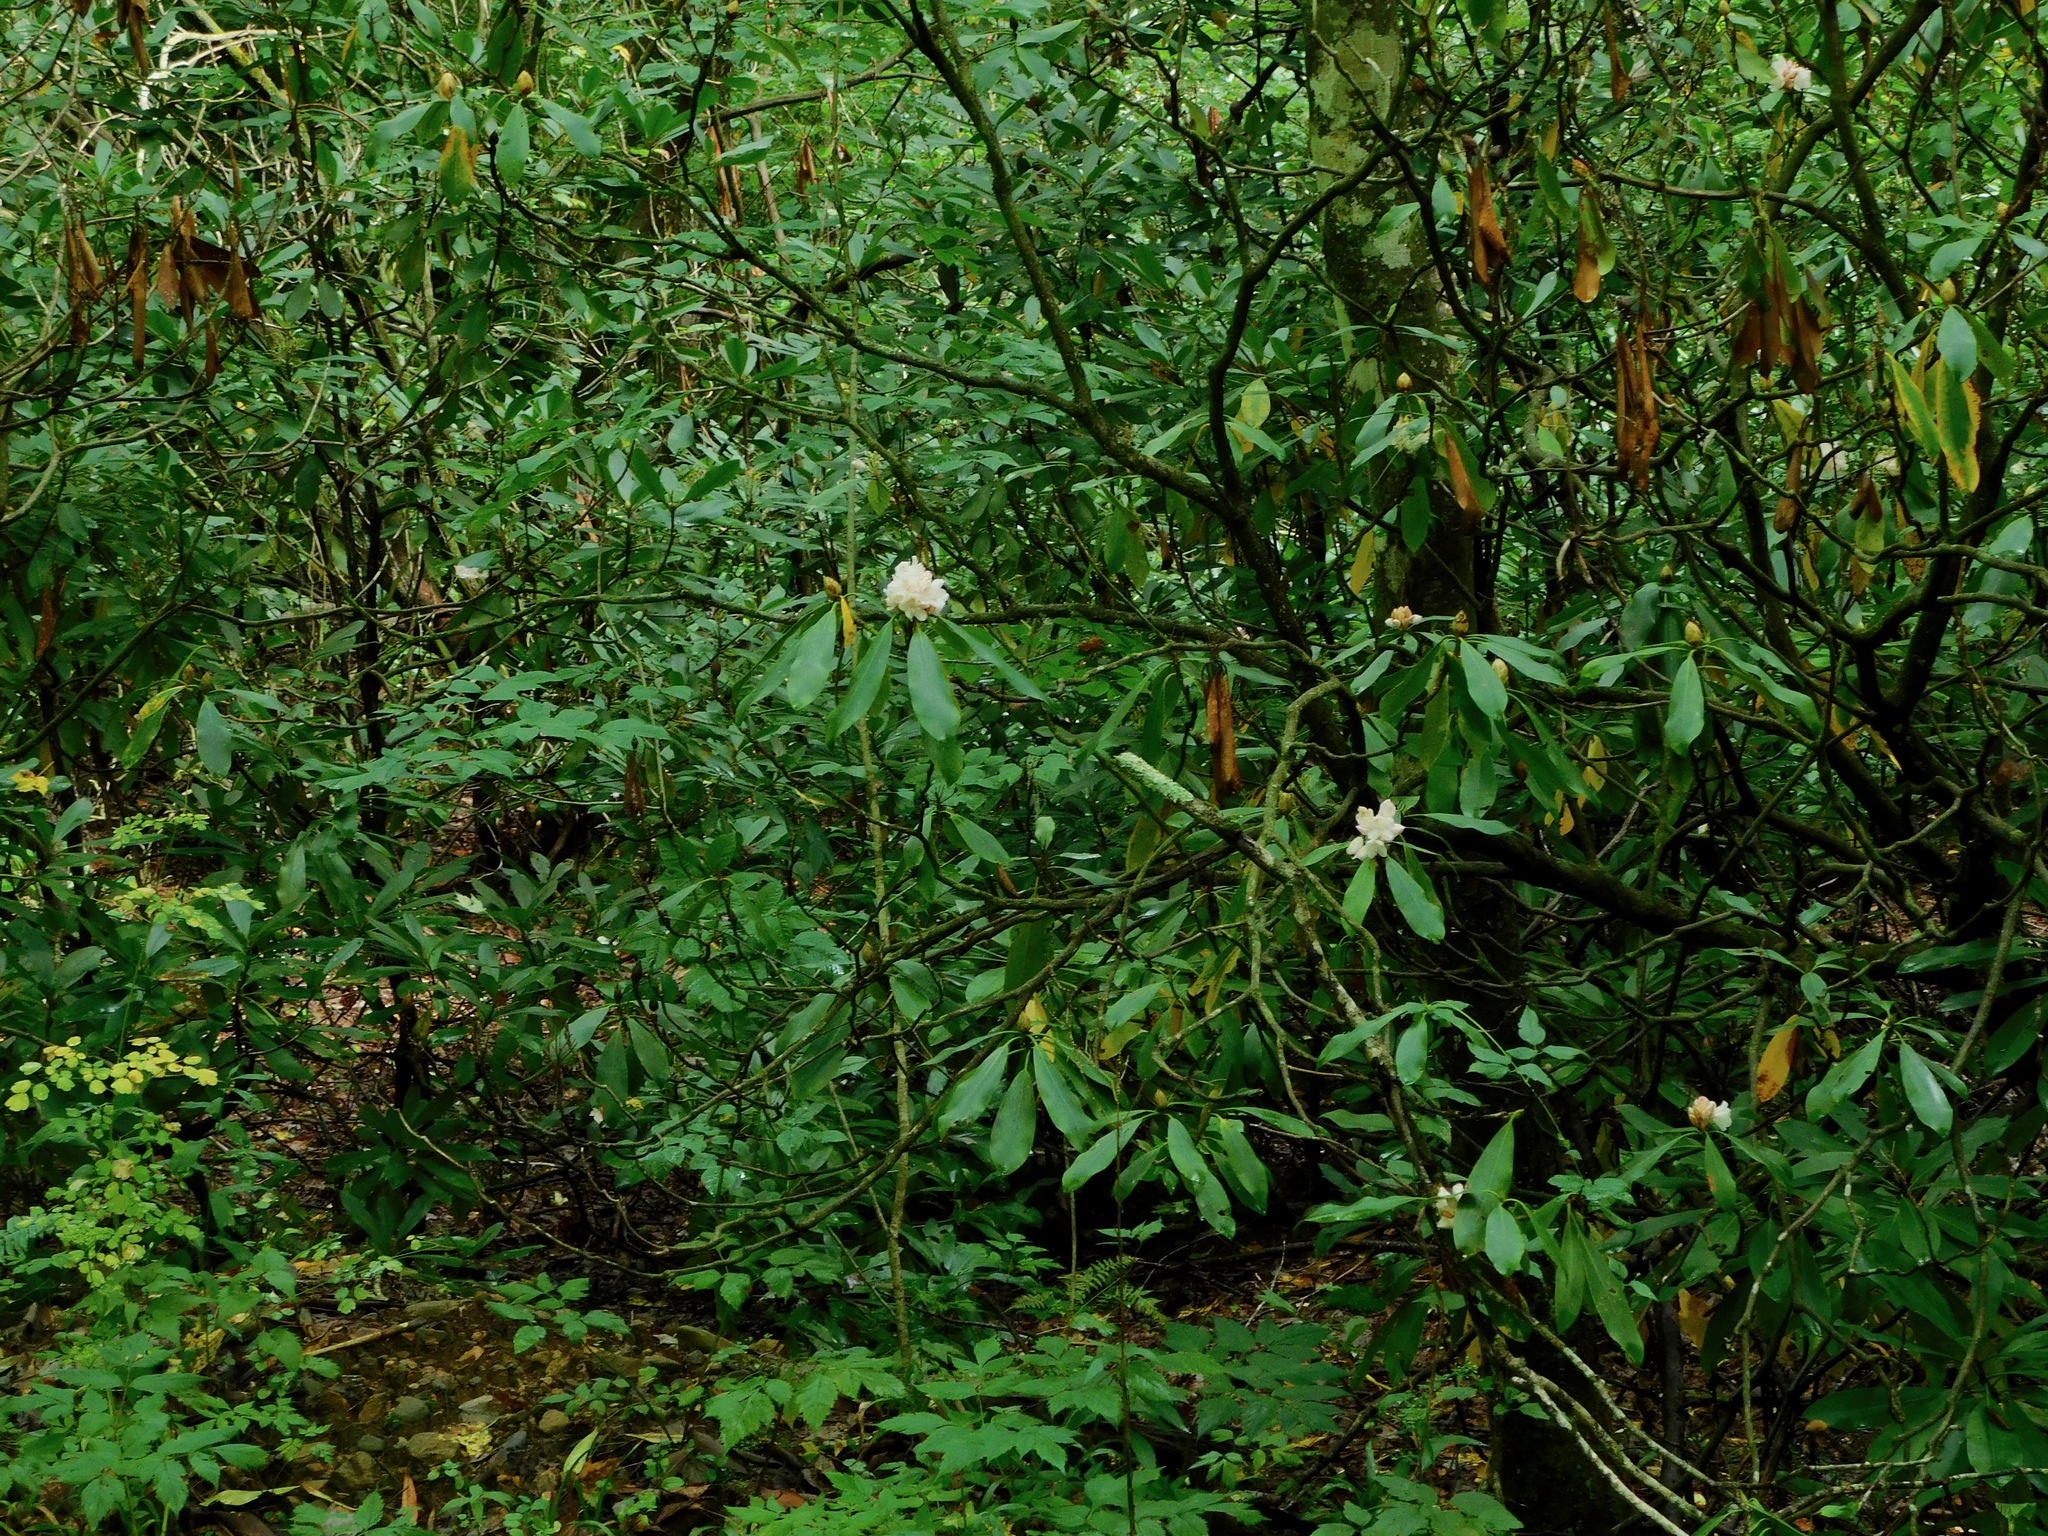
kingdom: Plantae
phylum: Tracheophyta
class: Magnoliopsida
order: Ericales
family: Ericaceae
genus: Rhododendron
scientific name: Rhododendron maximum
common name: Great rhododendron
